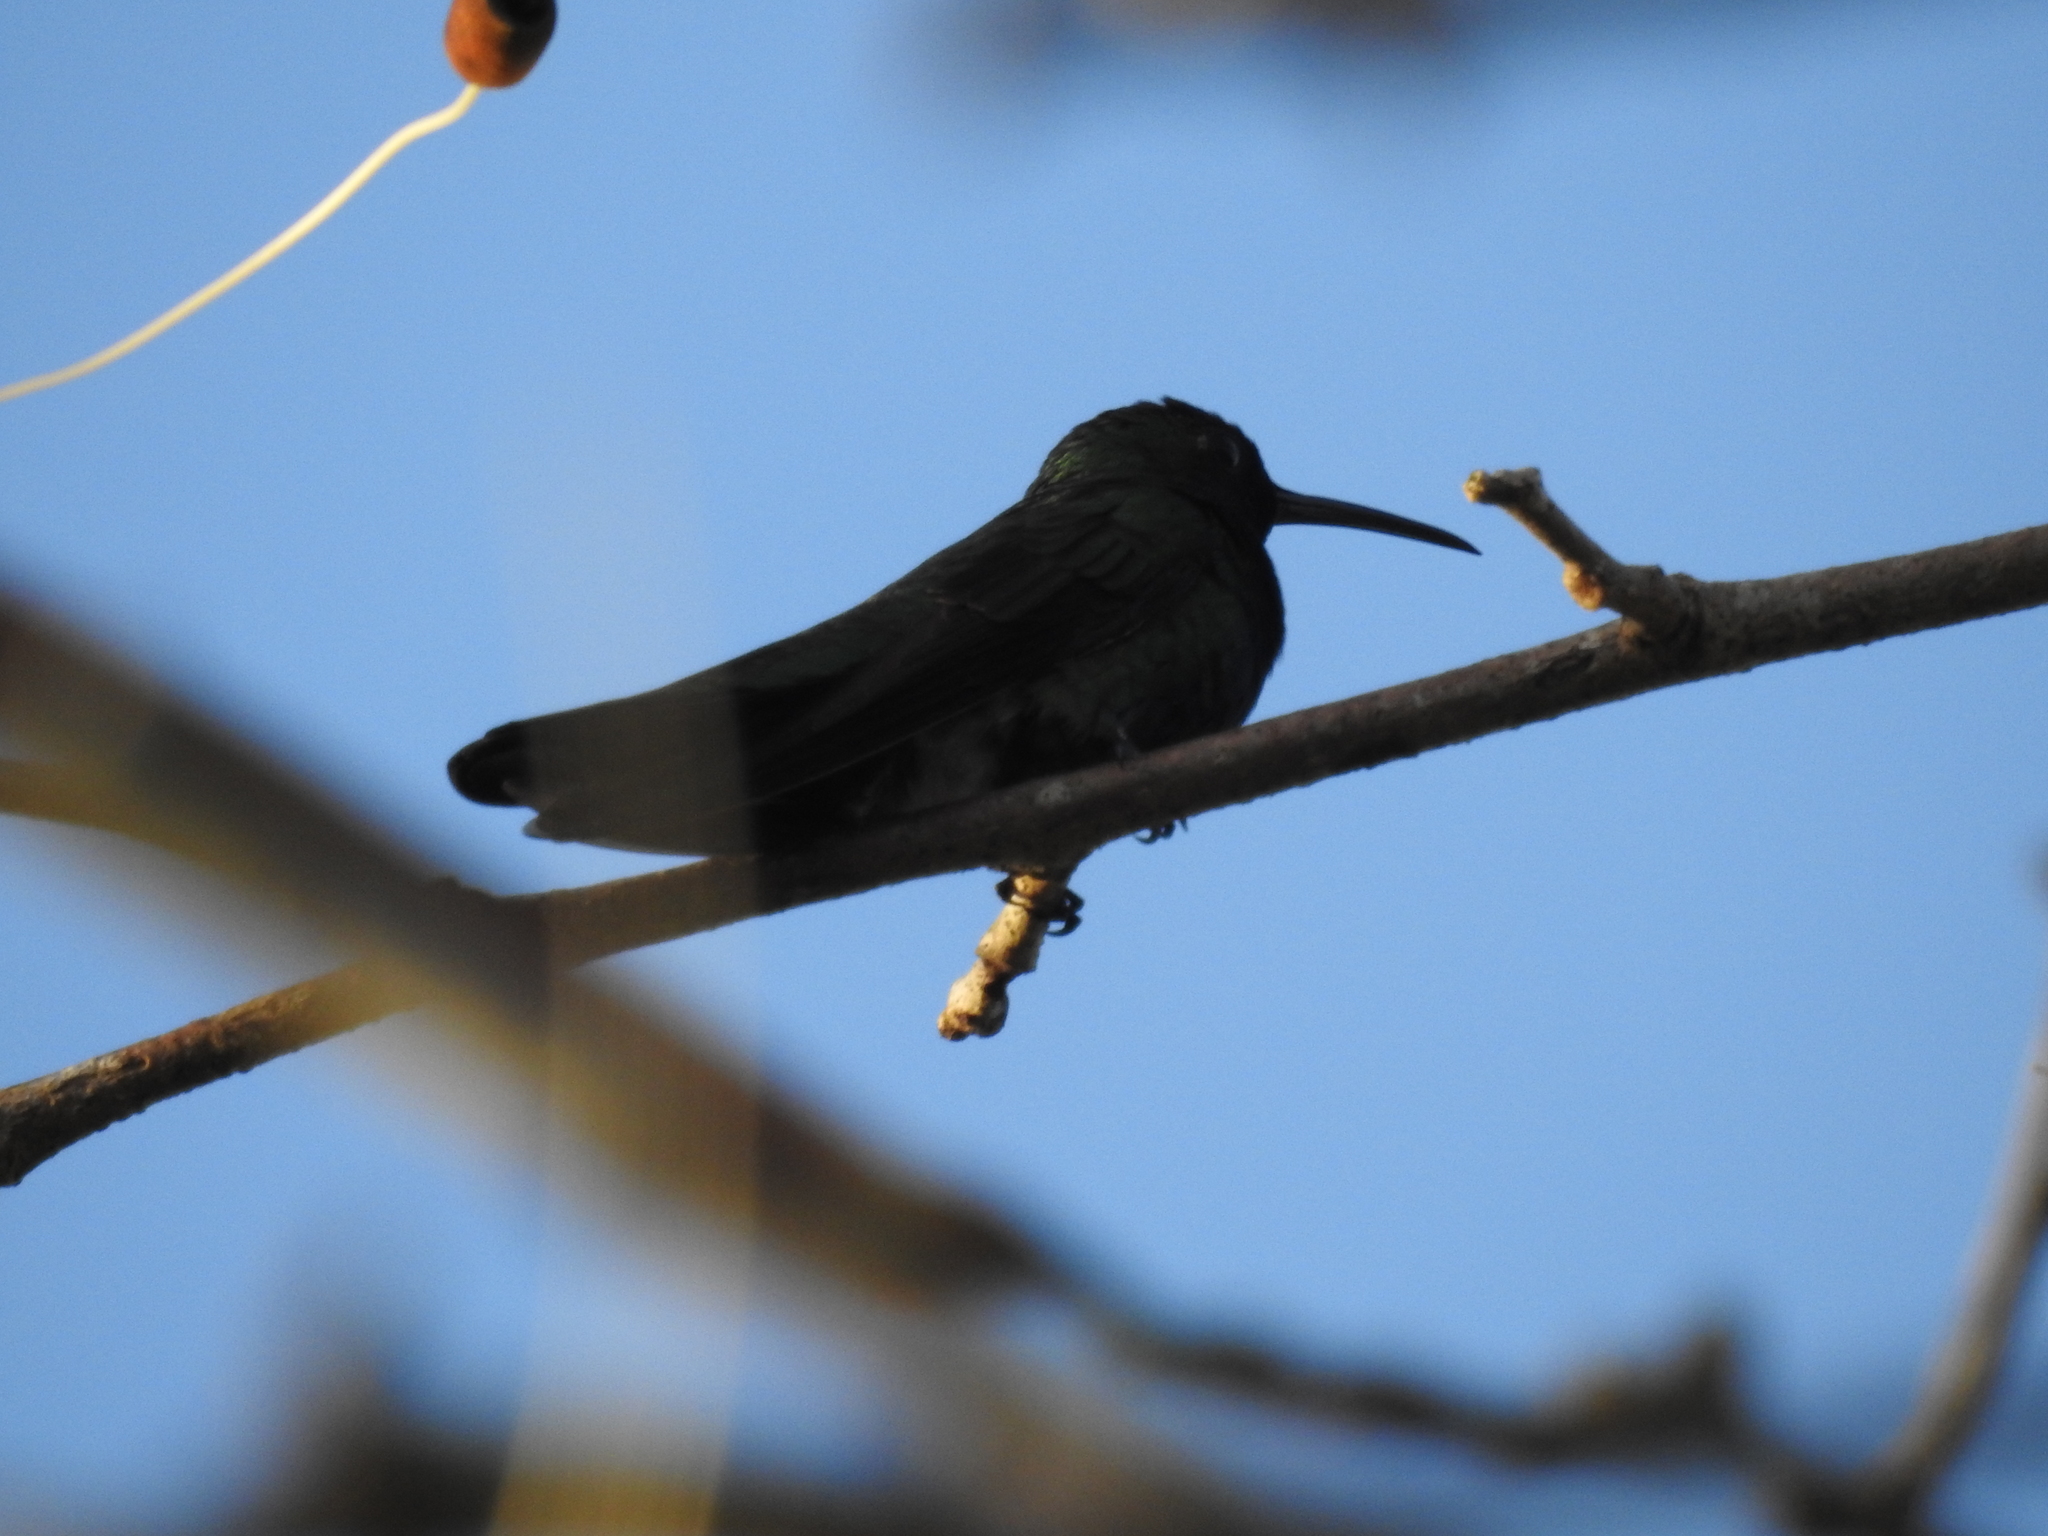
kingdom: Animalia
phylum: Chordata
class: Aves
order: Apodiformes
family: Trochilidae
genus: Anthracothorax
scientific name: Anthracothorax prevostii
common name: Green-breasted mango
